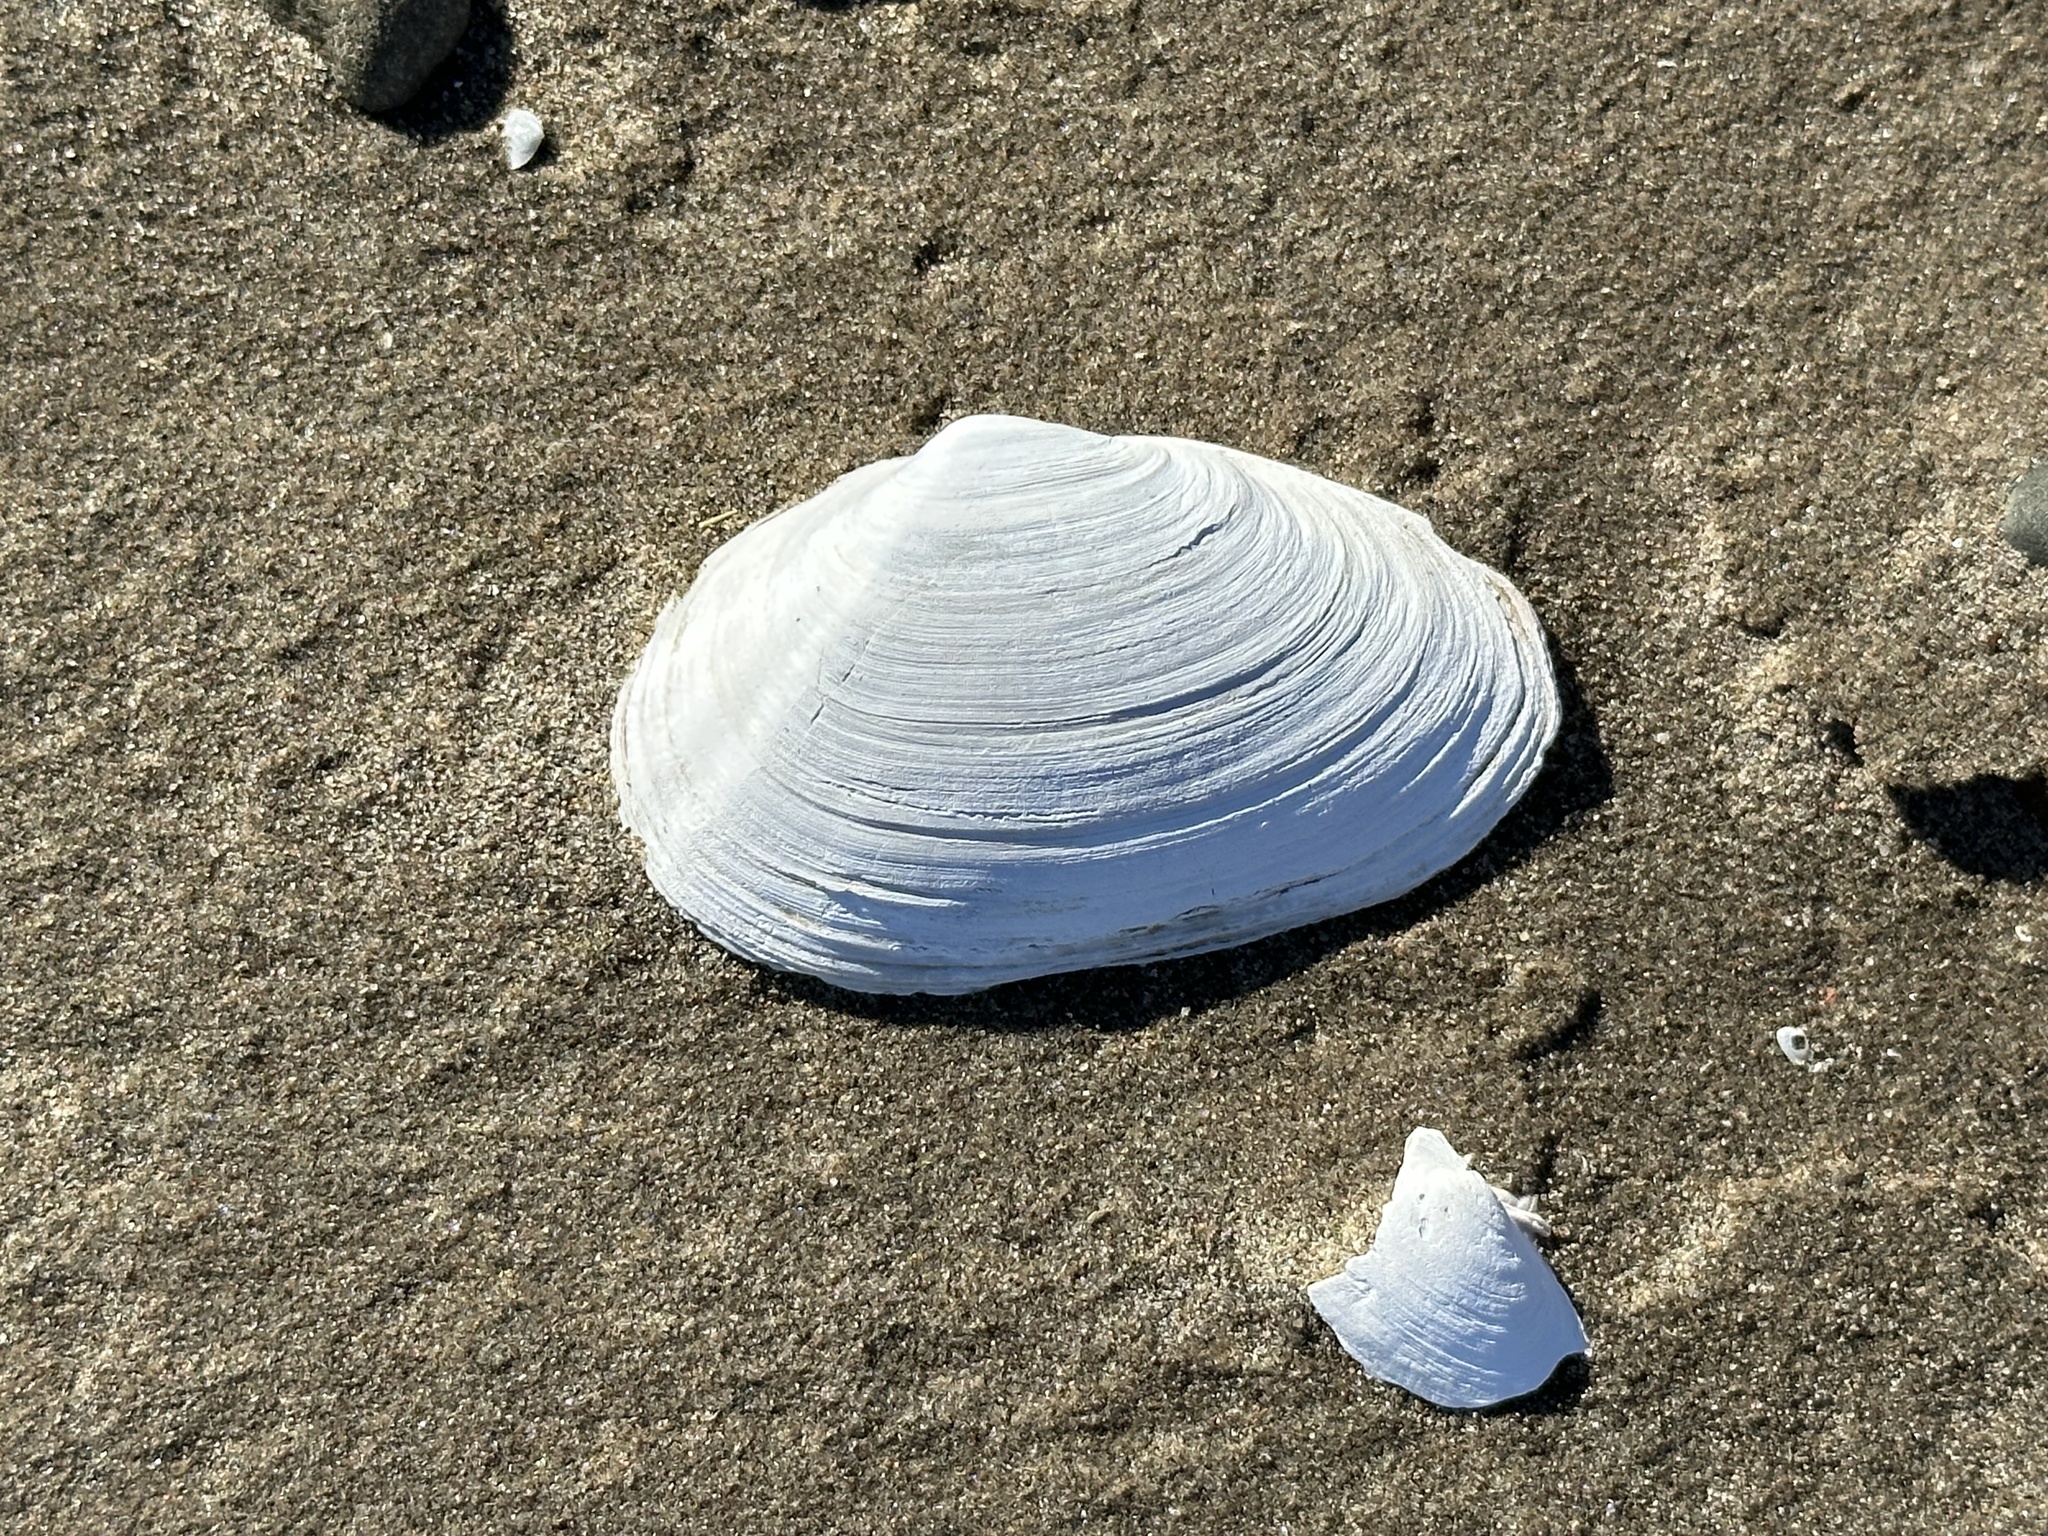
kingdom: Animalia
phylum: Mollusca
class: Bivalvia
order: Myida
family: Myidae
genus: Mya
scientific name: Mya arenaria
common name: Soft-shelled clam
